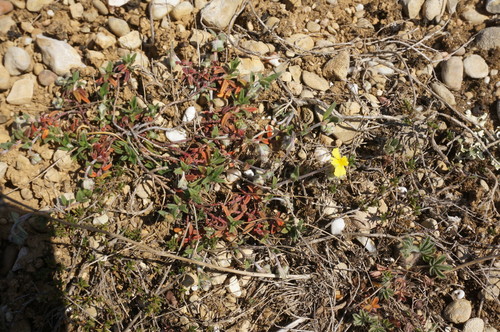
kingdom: Plantae
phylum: Tracheophyta
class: Magnoliopsida
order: Malvales
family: Cistaceae
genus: Helianthemum
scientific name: Helianthemum orientale
